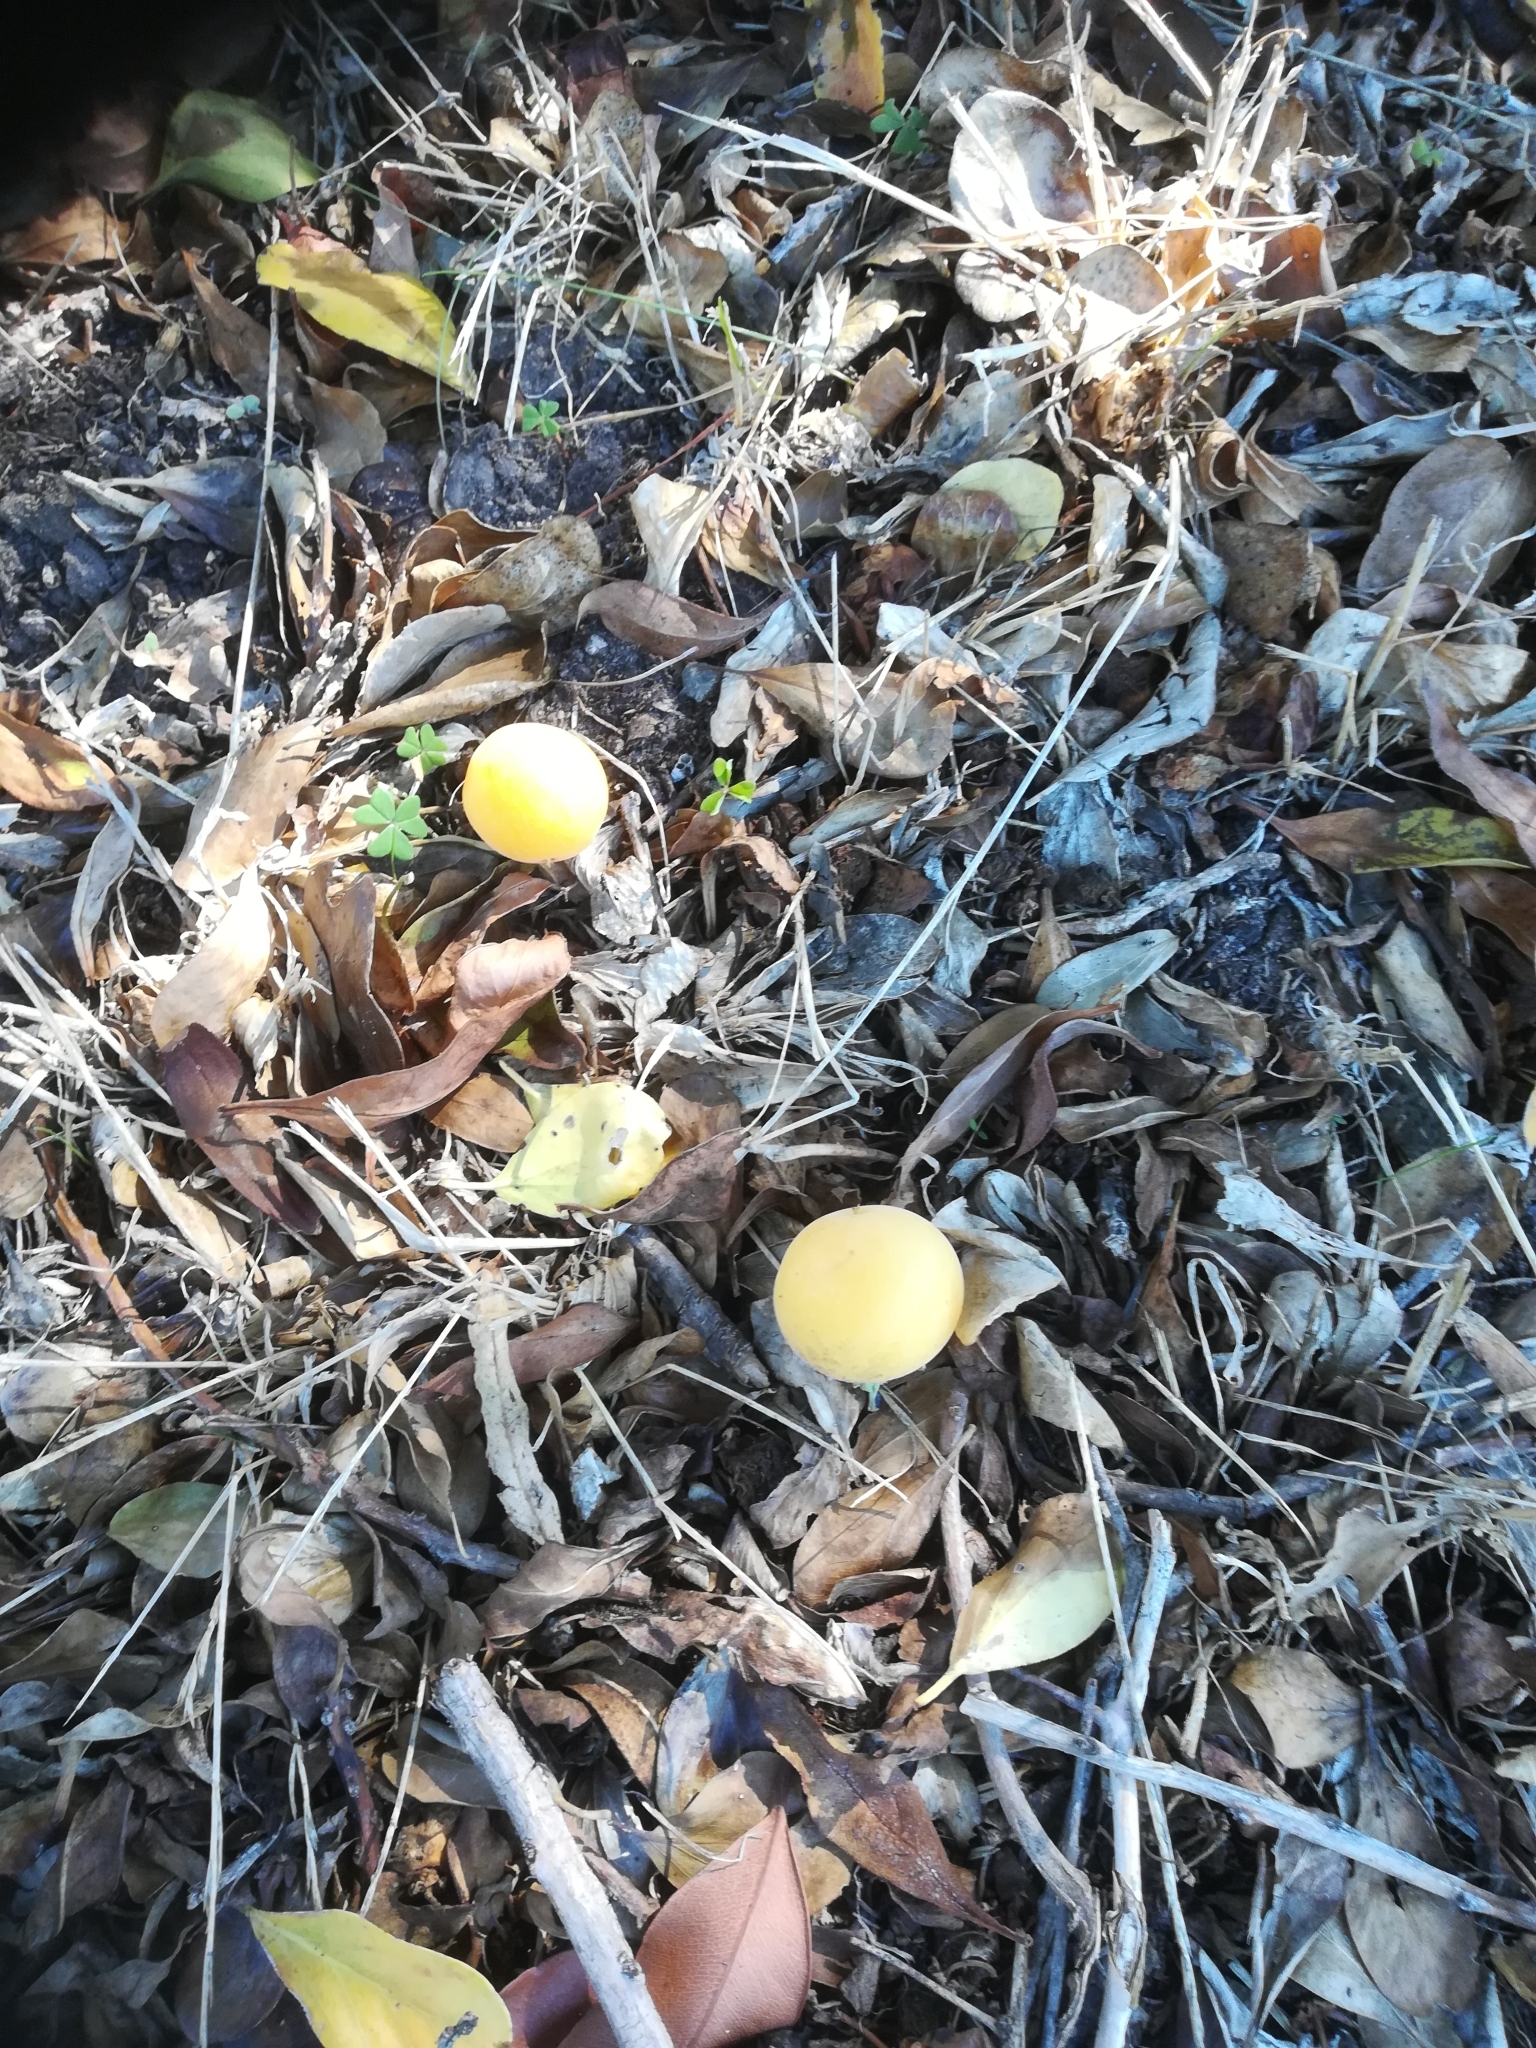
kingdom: Plantae
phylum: Tracheophyta
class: Magnoliopsida
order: Malpighiales
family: Salicaceae
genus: Dovyalis
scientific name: Dovyalis caffra
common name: Kei-apple
